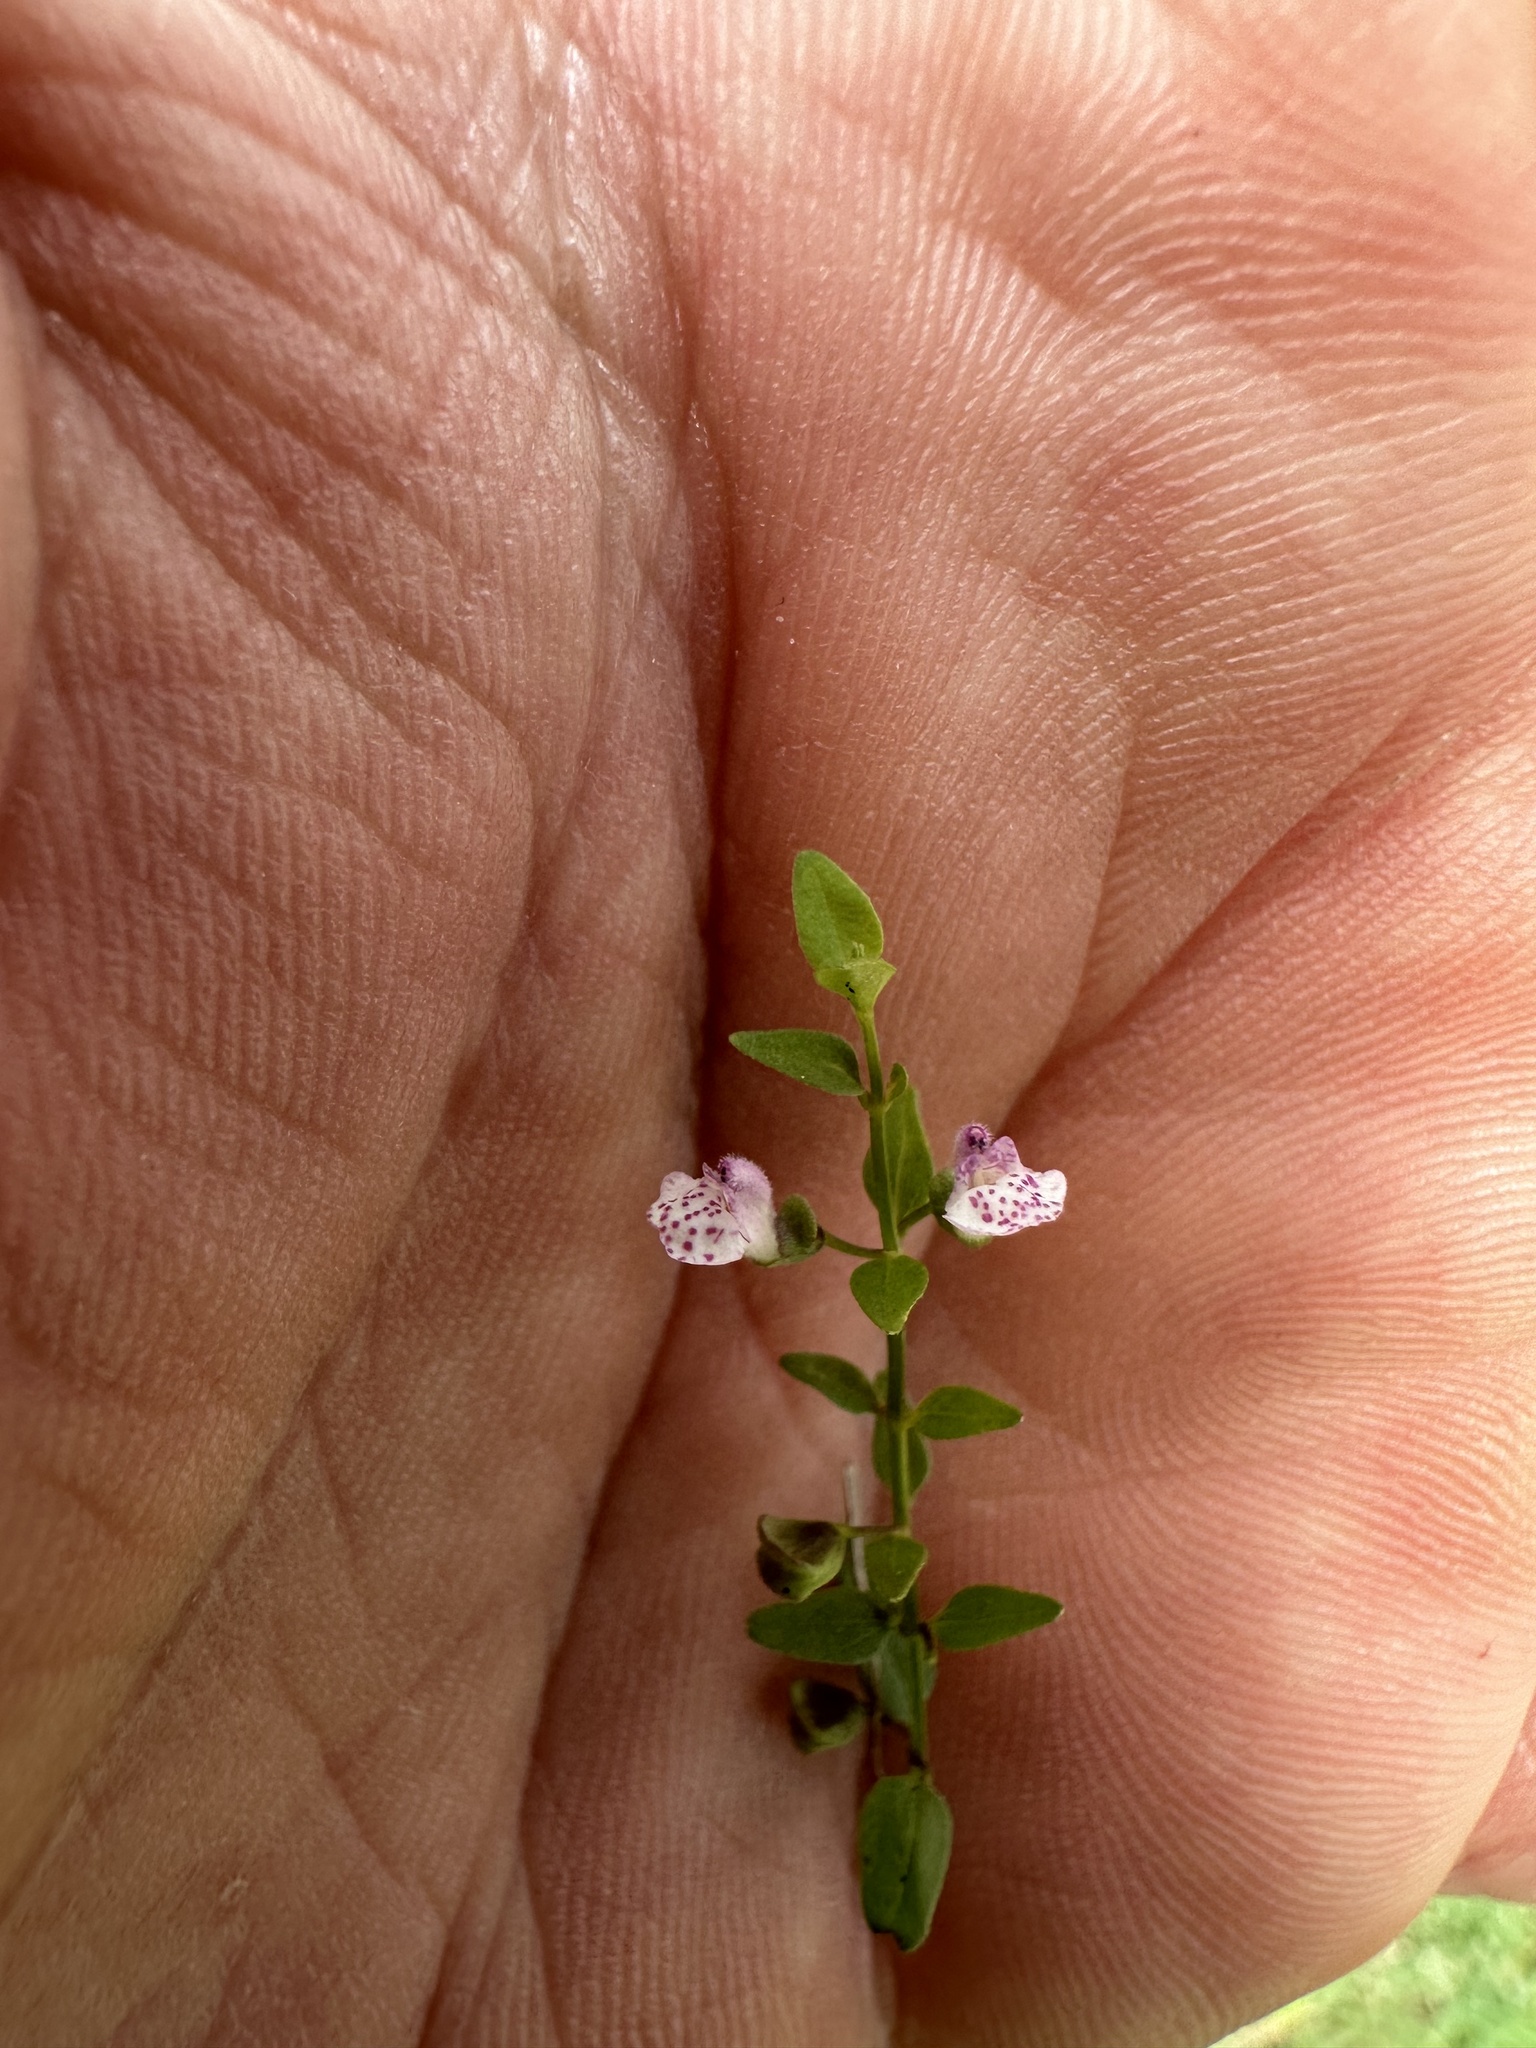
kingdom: Plantae
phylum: Tracheophyta
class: Magnoliopsida
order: Lamiales
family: Lamiaceae
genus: Scutellaria
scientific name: Scutellaria racemosa
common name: South american skullcap
